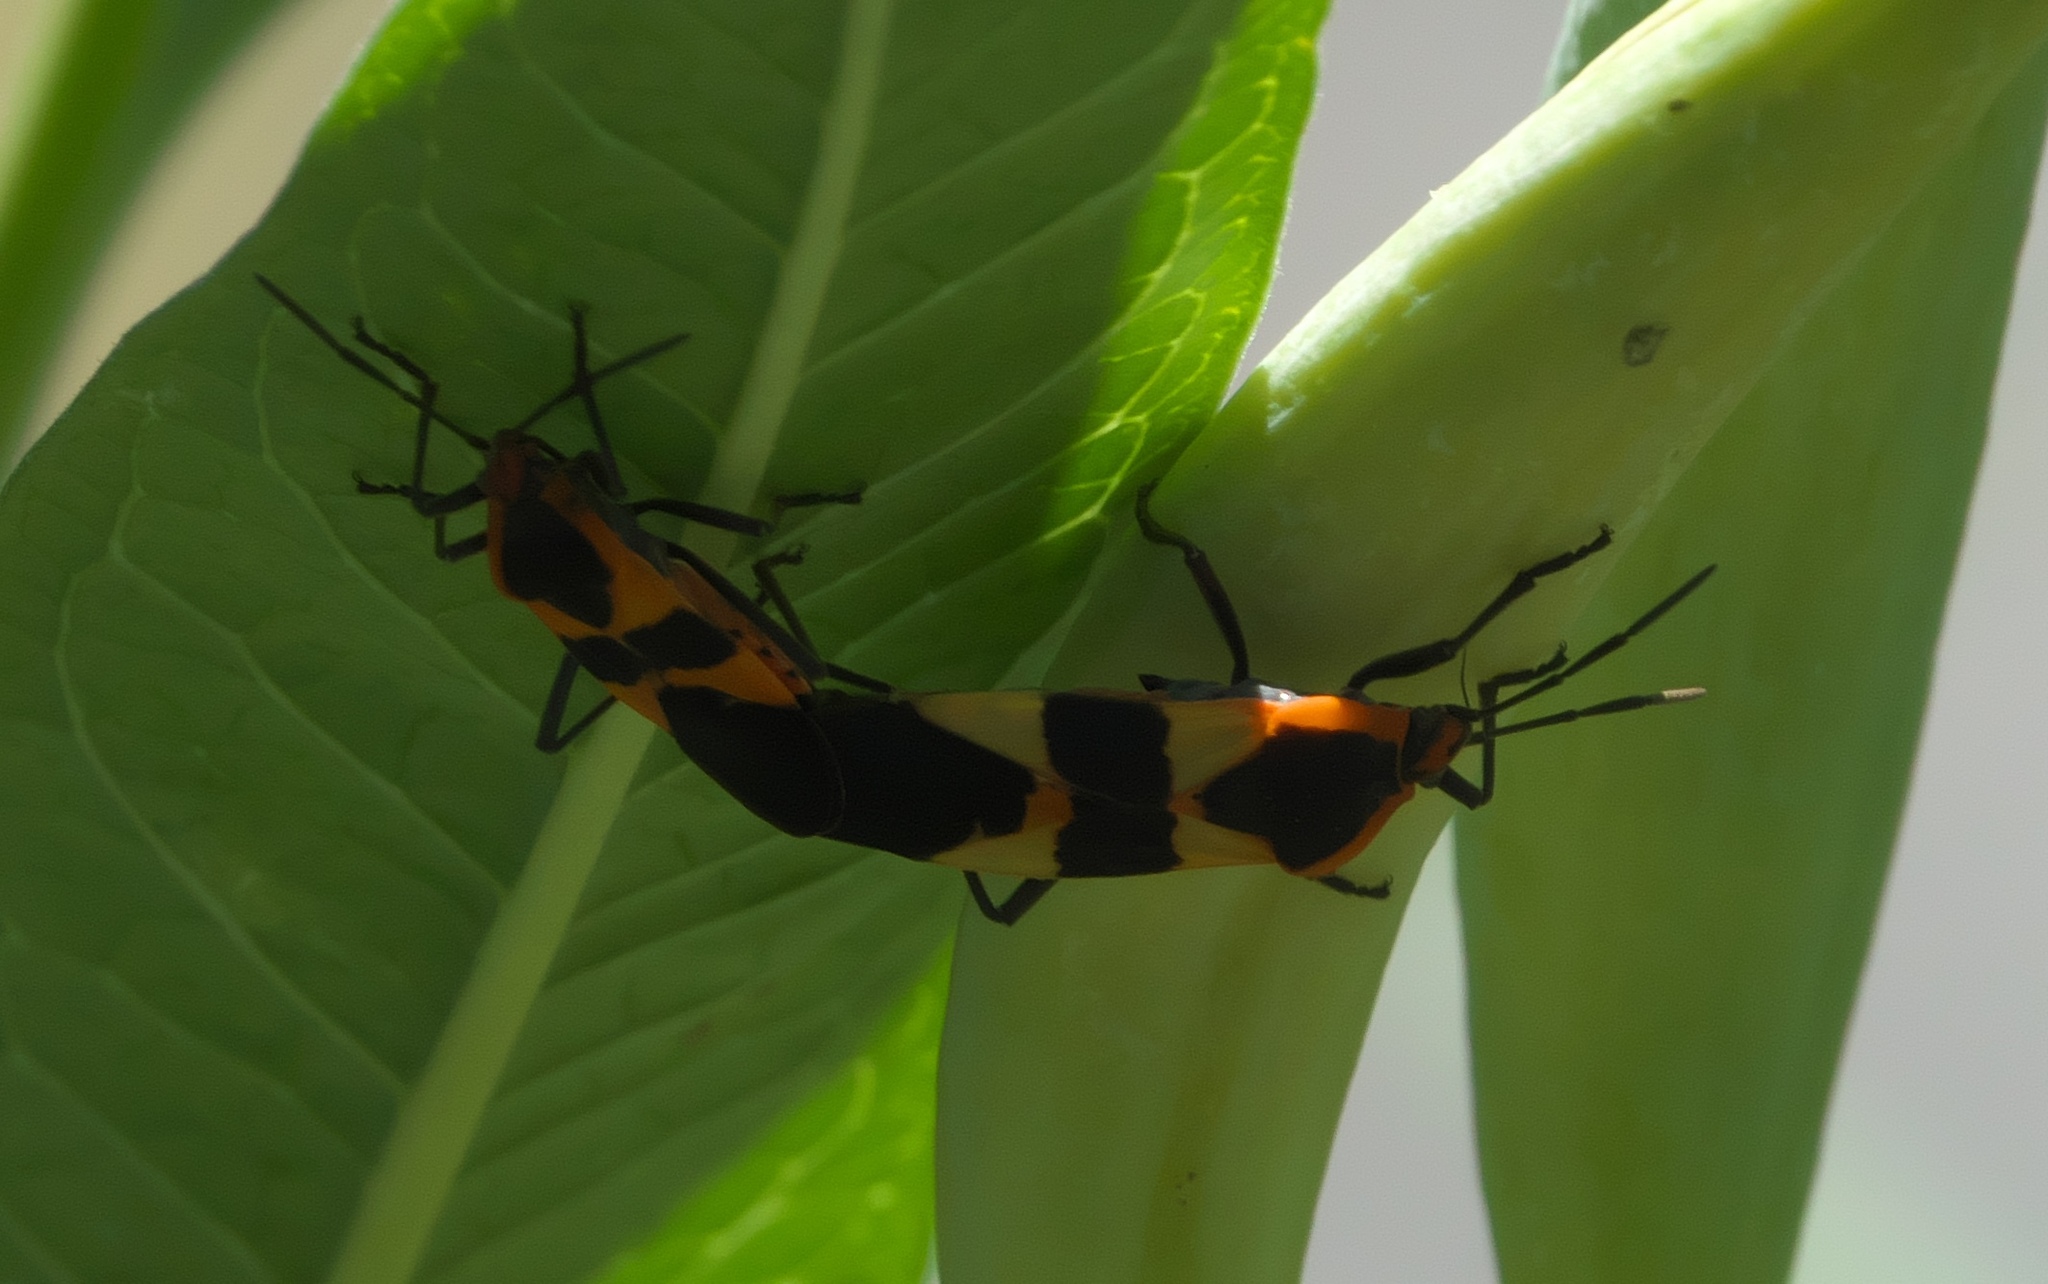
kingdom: Animalia
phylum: Arthropoda
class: Insecta
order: Hemiptera
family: Lygaeidae
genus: Oncopeltus
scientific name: Oncopeltus fasciatus
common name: Large milkweed bug
